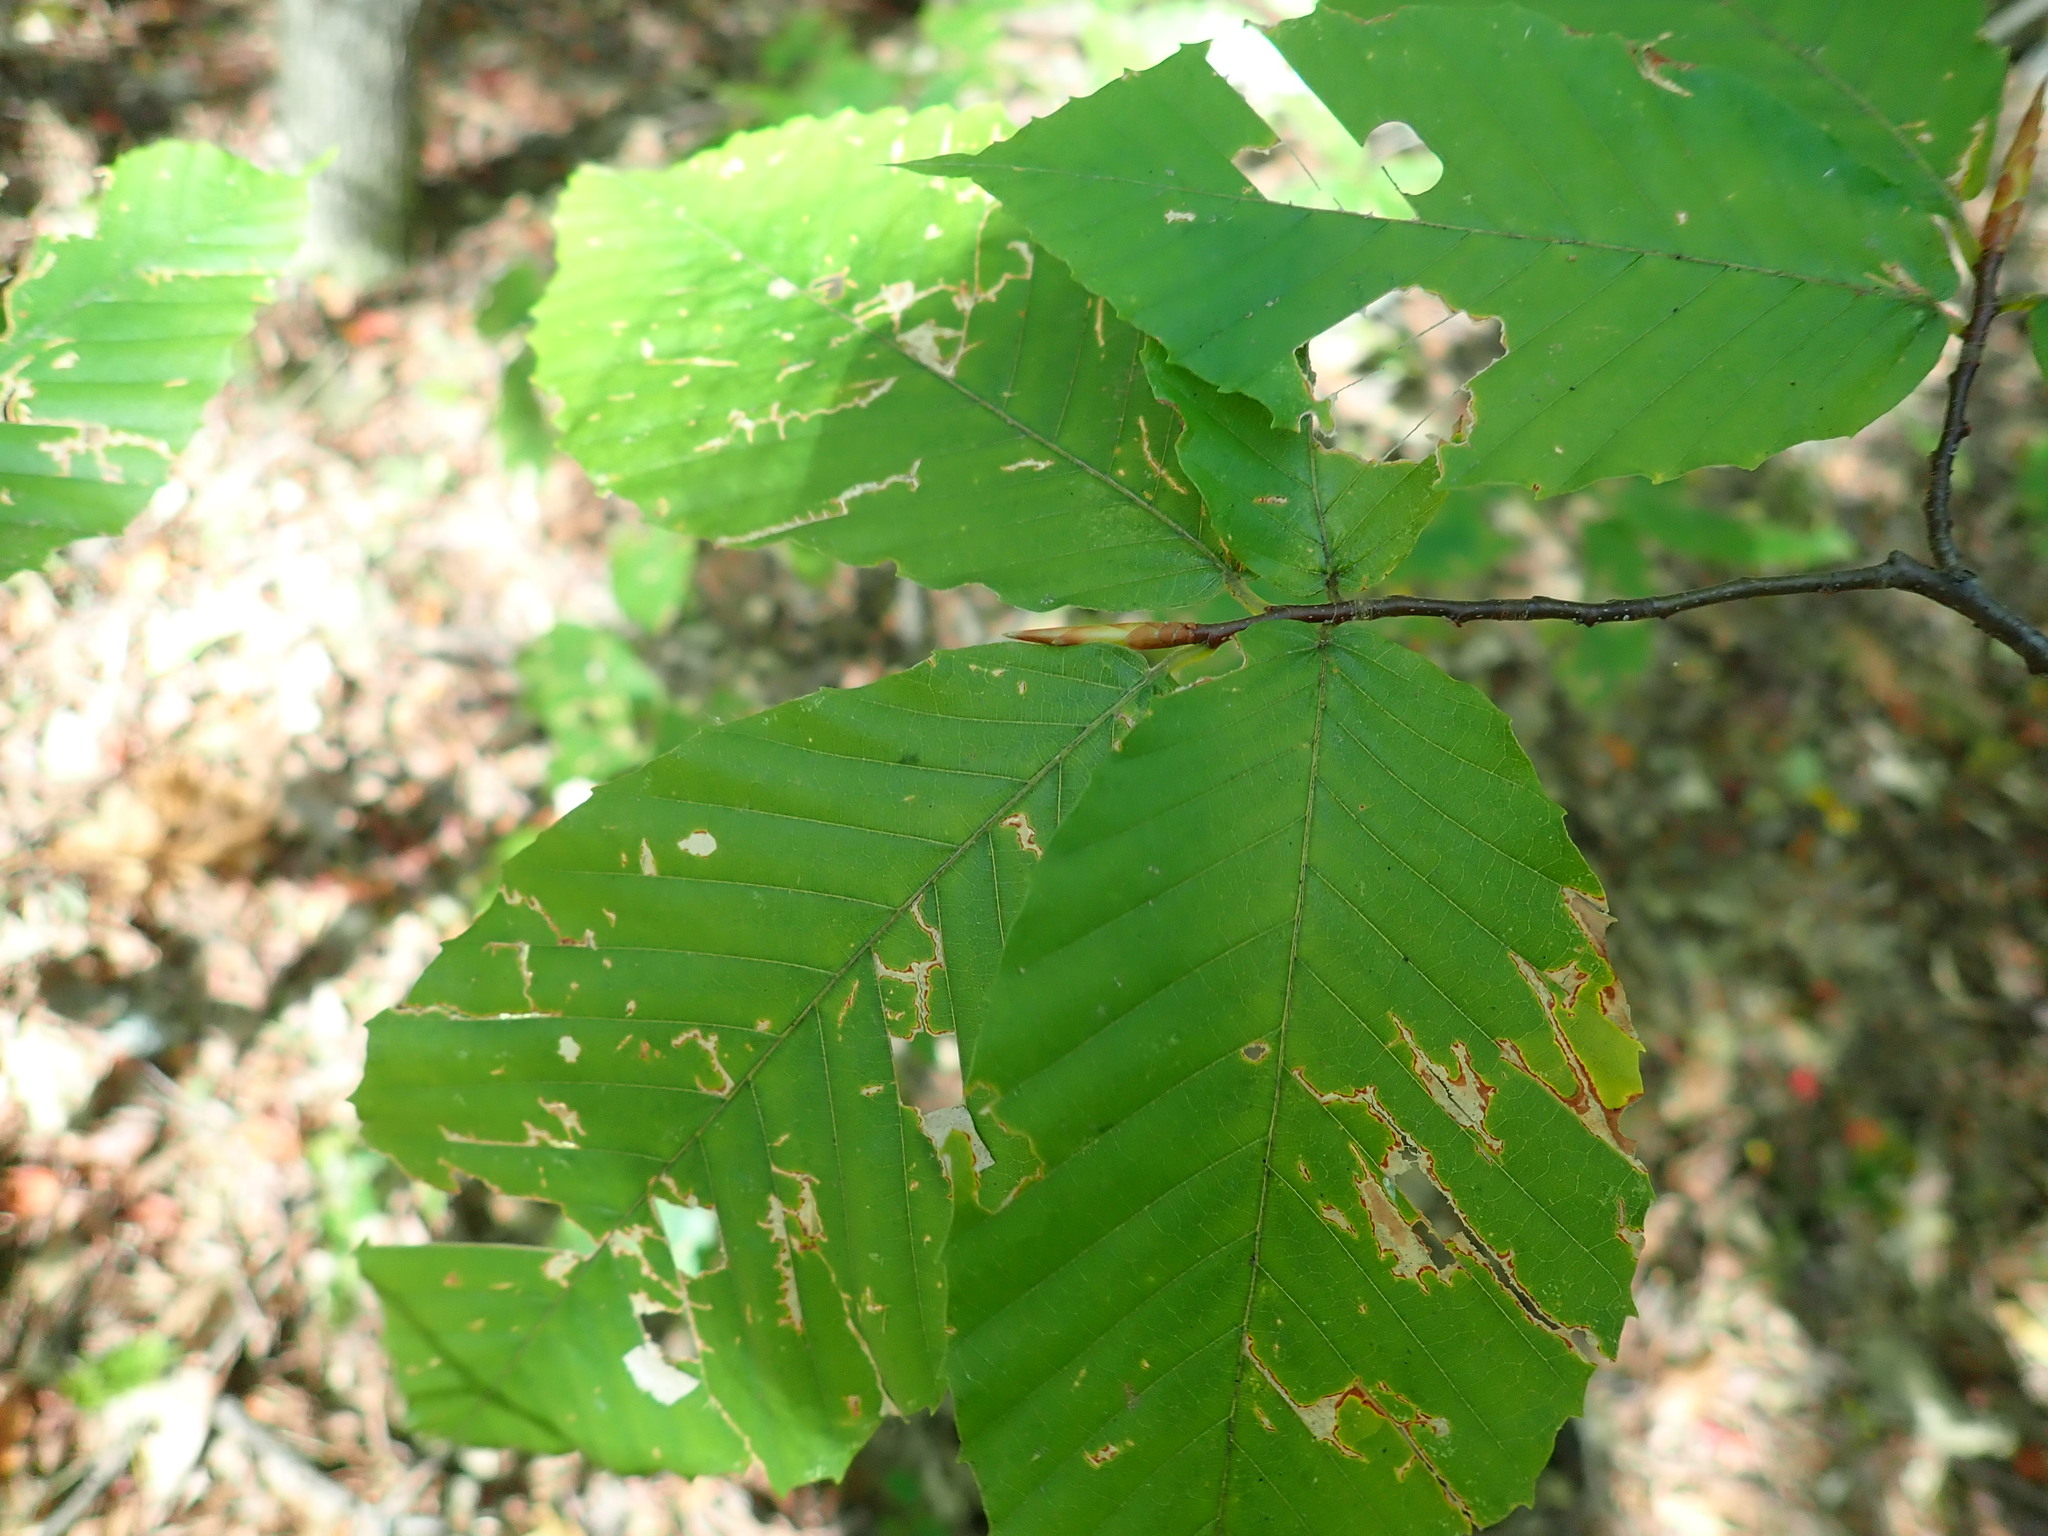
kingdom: Plantae
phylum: Tracheophyta
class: Magnoliopsida
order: Fagales
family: Fagaceae
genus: Fagus
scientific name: Fagus grandifolia
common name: American beech
